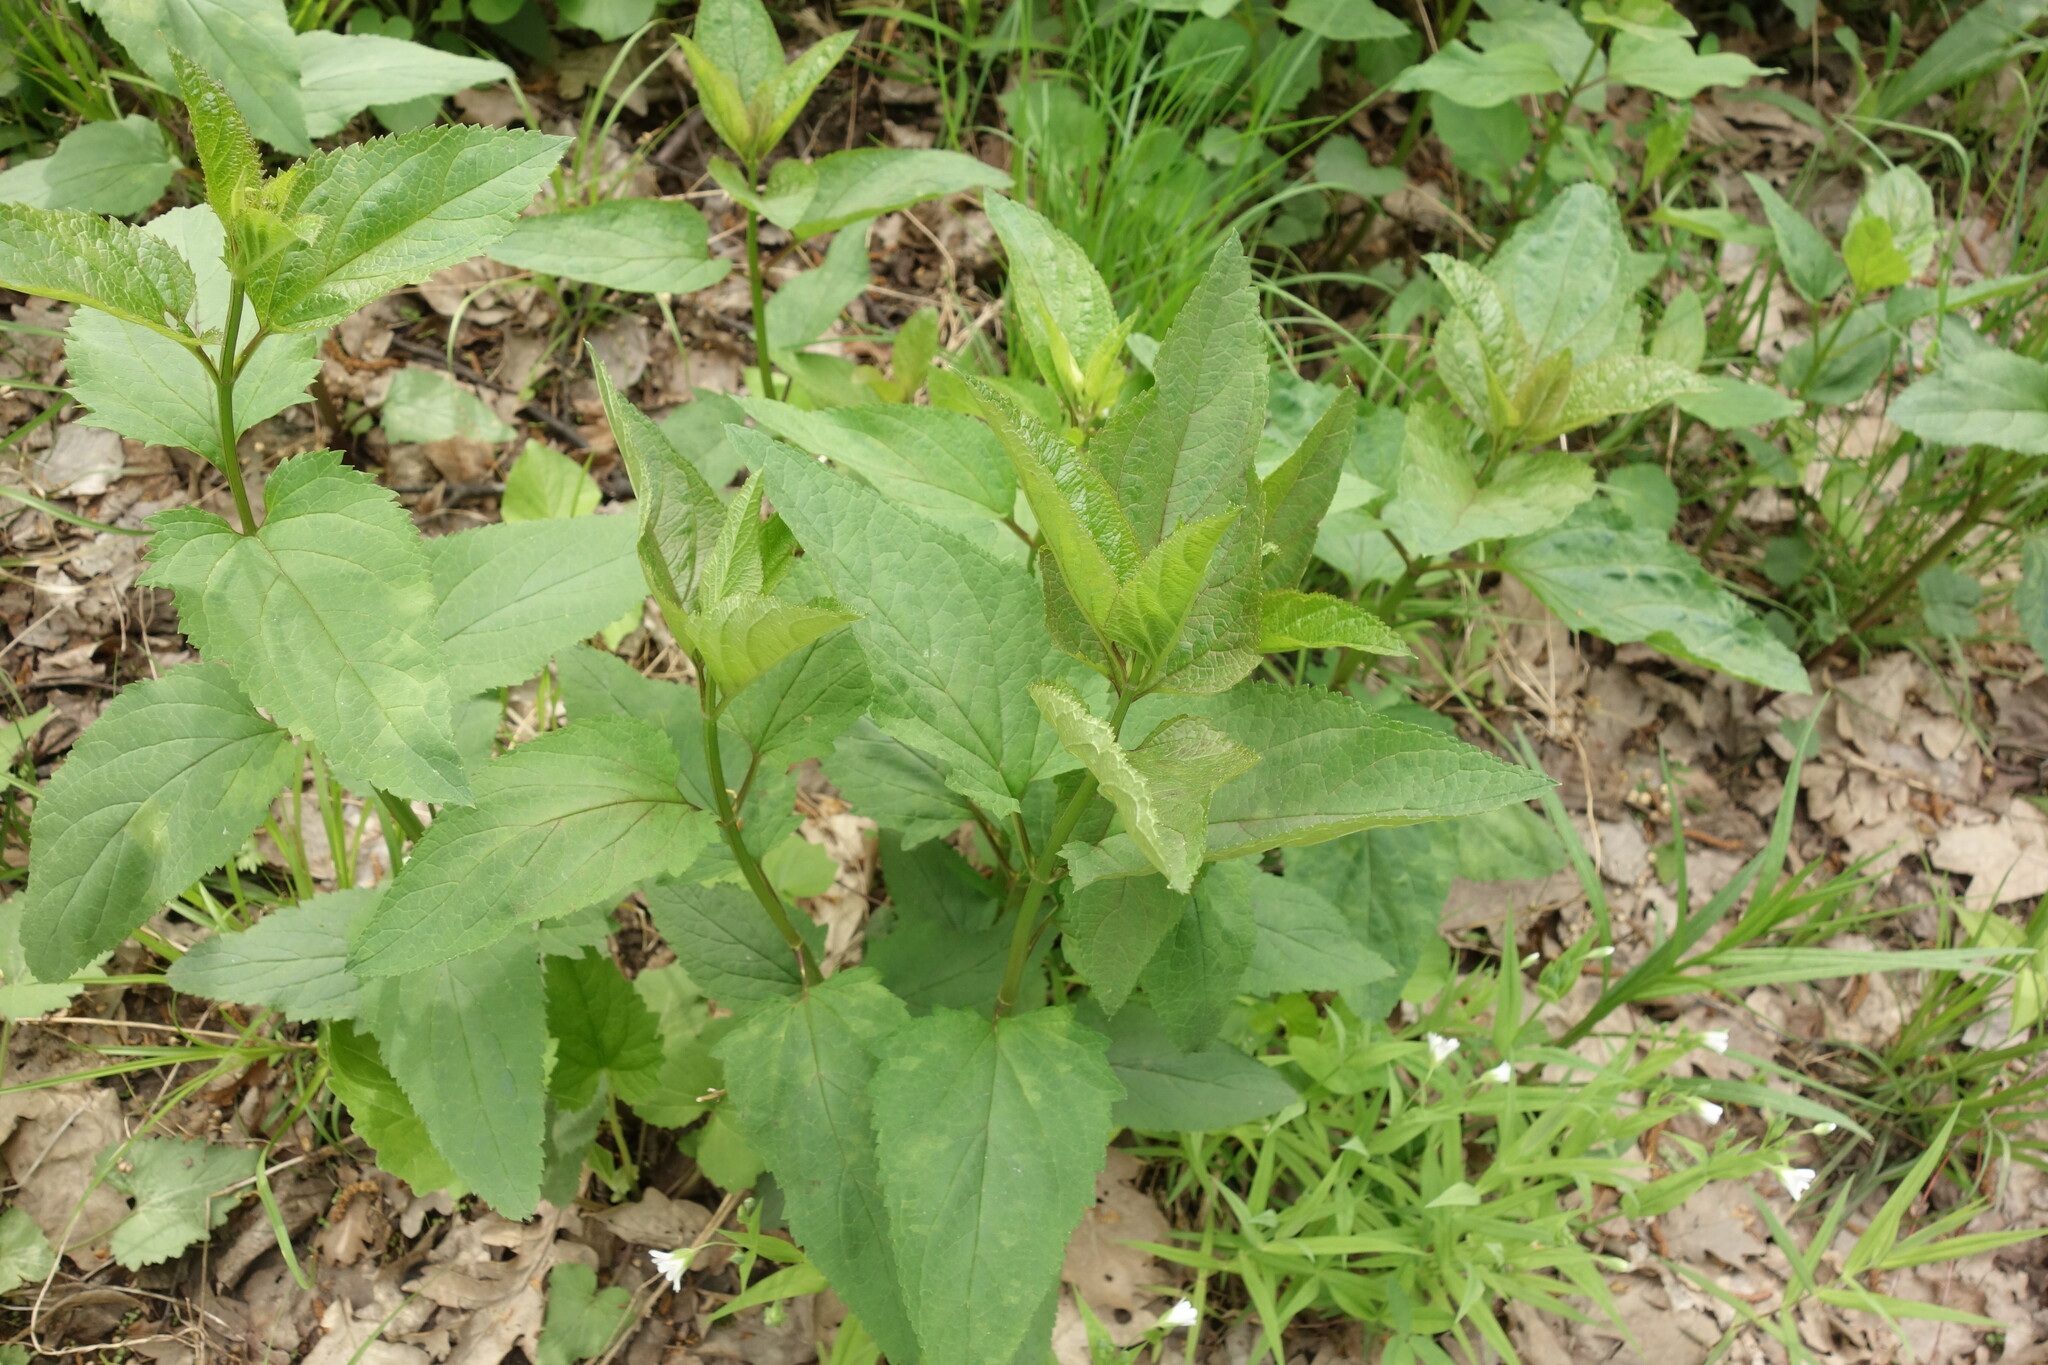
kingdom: Plantae
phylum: Tracheophyta
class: Magnoliopsida
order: Lamiales
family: Scrophulariaceae
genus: Scrophularia
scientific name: Scrophularia nodosa
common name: Common figwort
